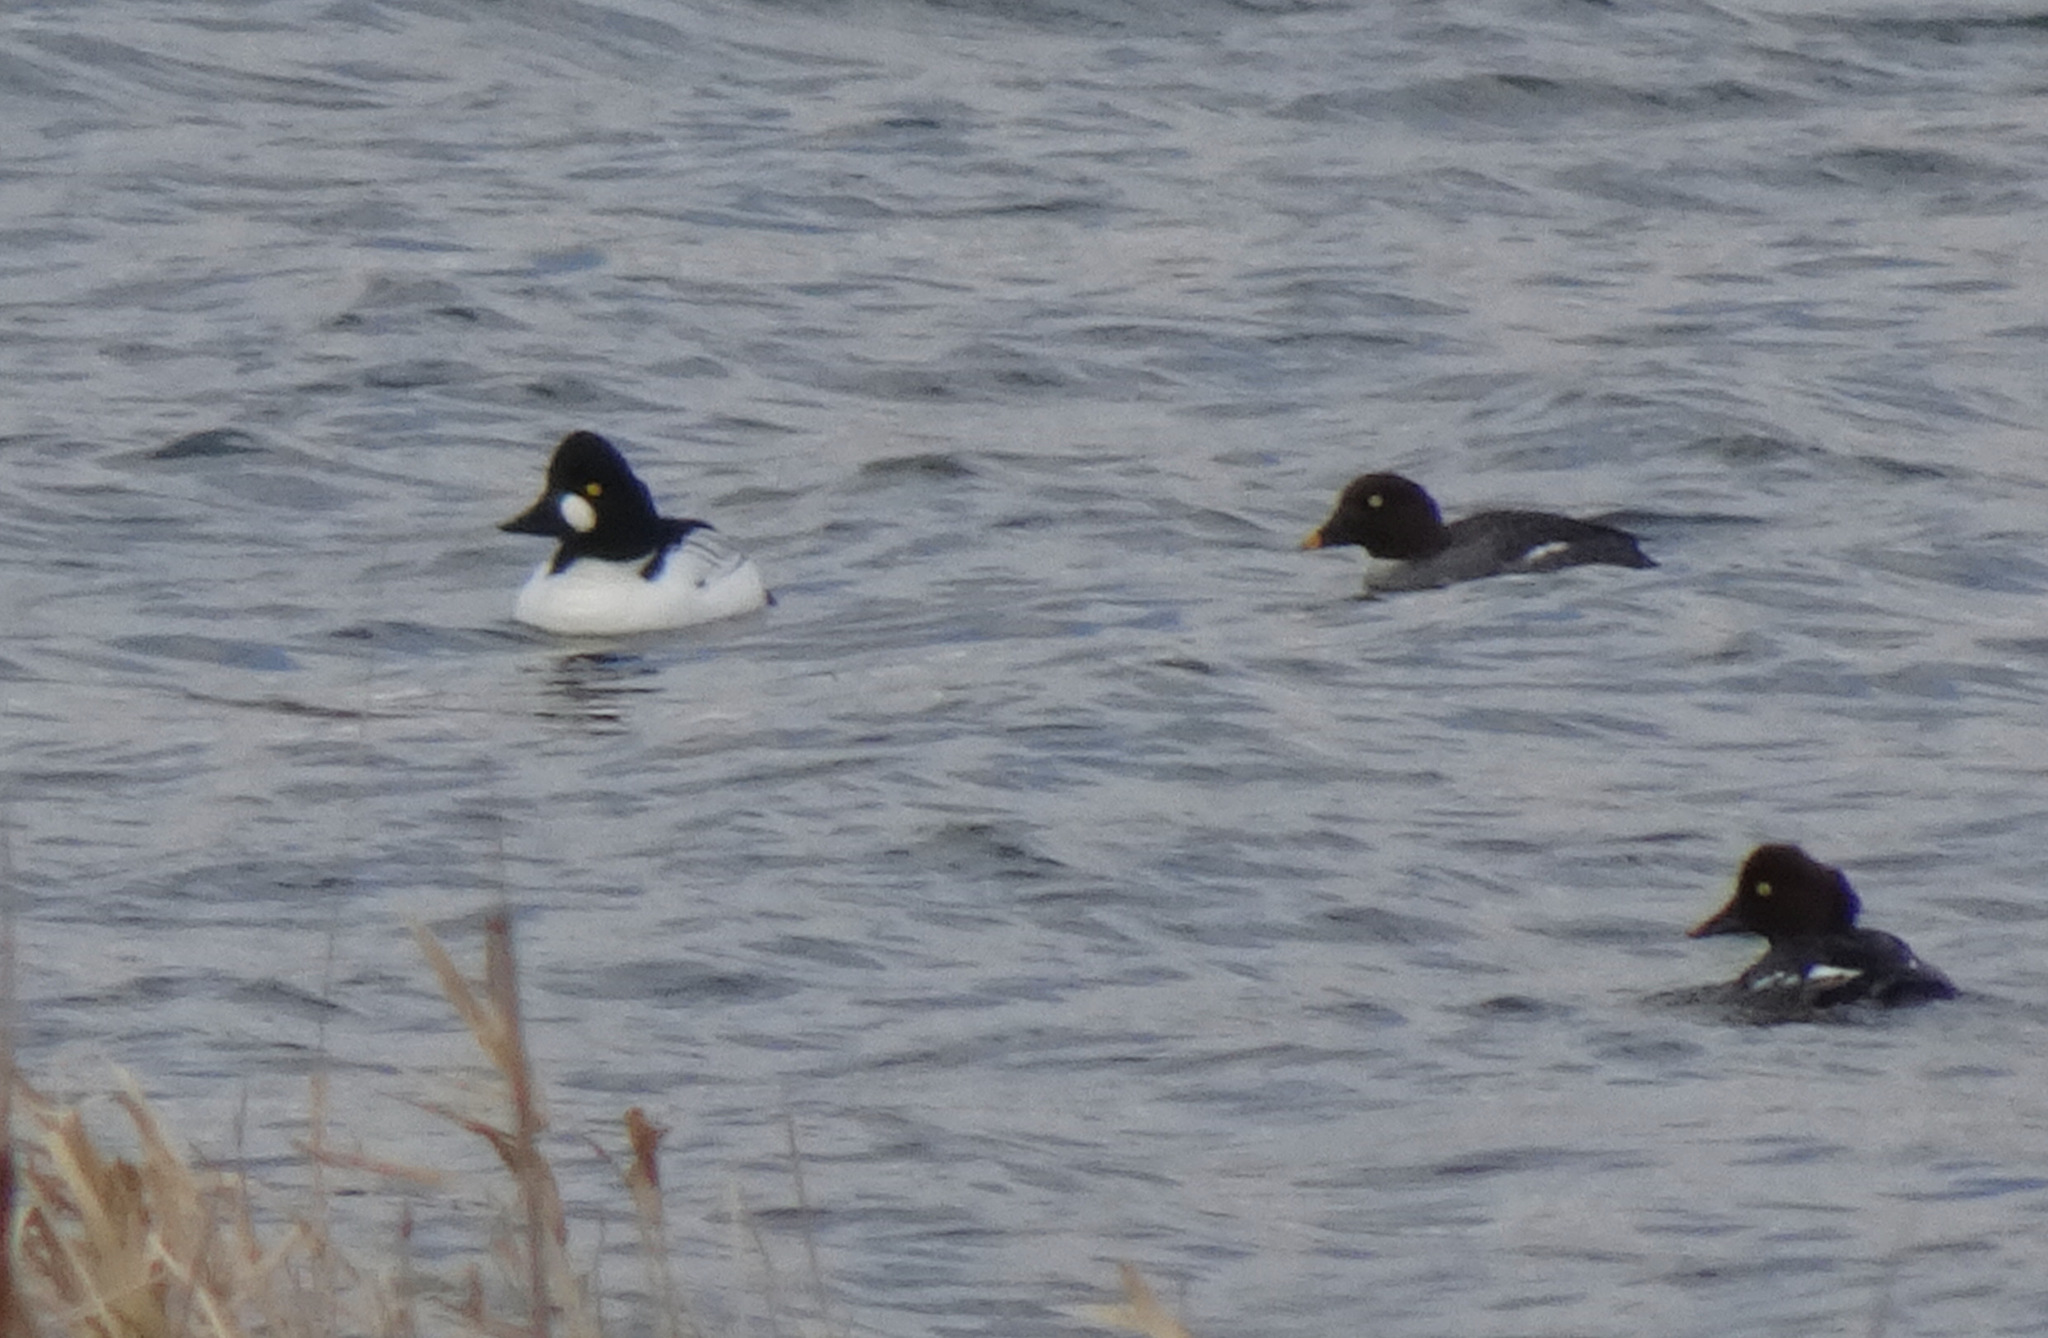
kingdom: Animalia
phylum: Chordata
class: Aves
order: Anseriformes
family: Anatidae
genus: Bucephala
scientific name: Bucephala clangula
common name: Common goldeneye
